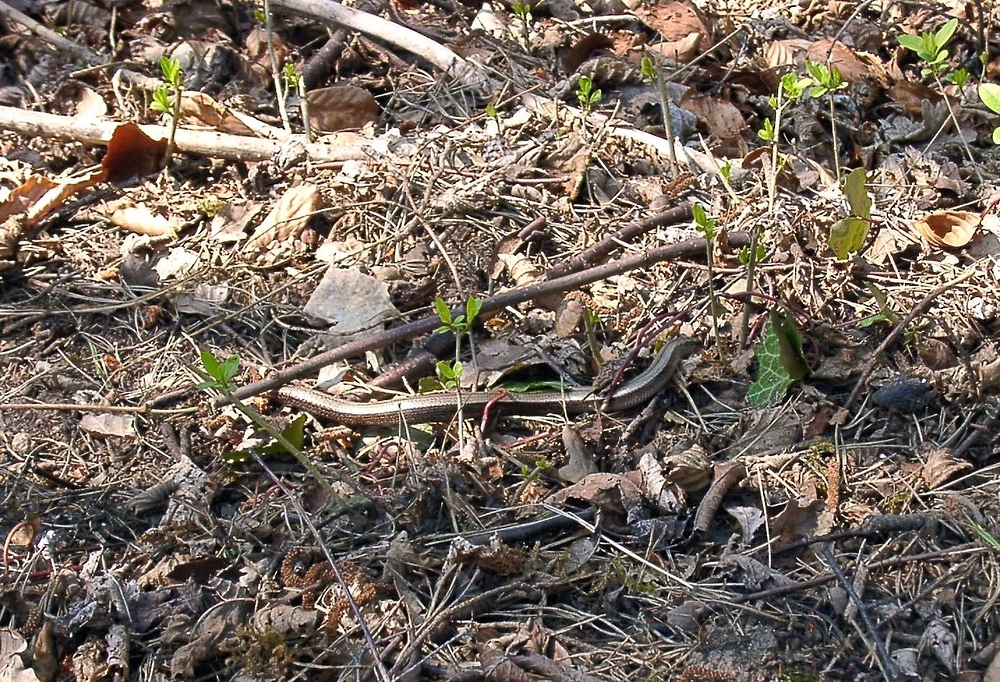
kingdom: Animalia
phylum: Chordata
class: Squamata
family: Anguidae
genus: Anguis
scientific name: Anguis fragilis
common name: Slow worm
